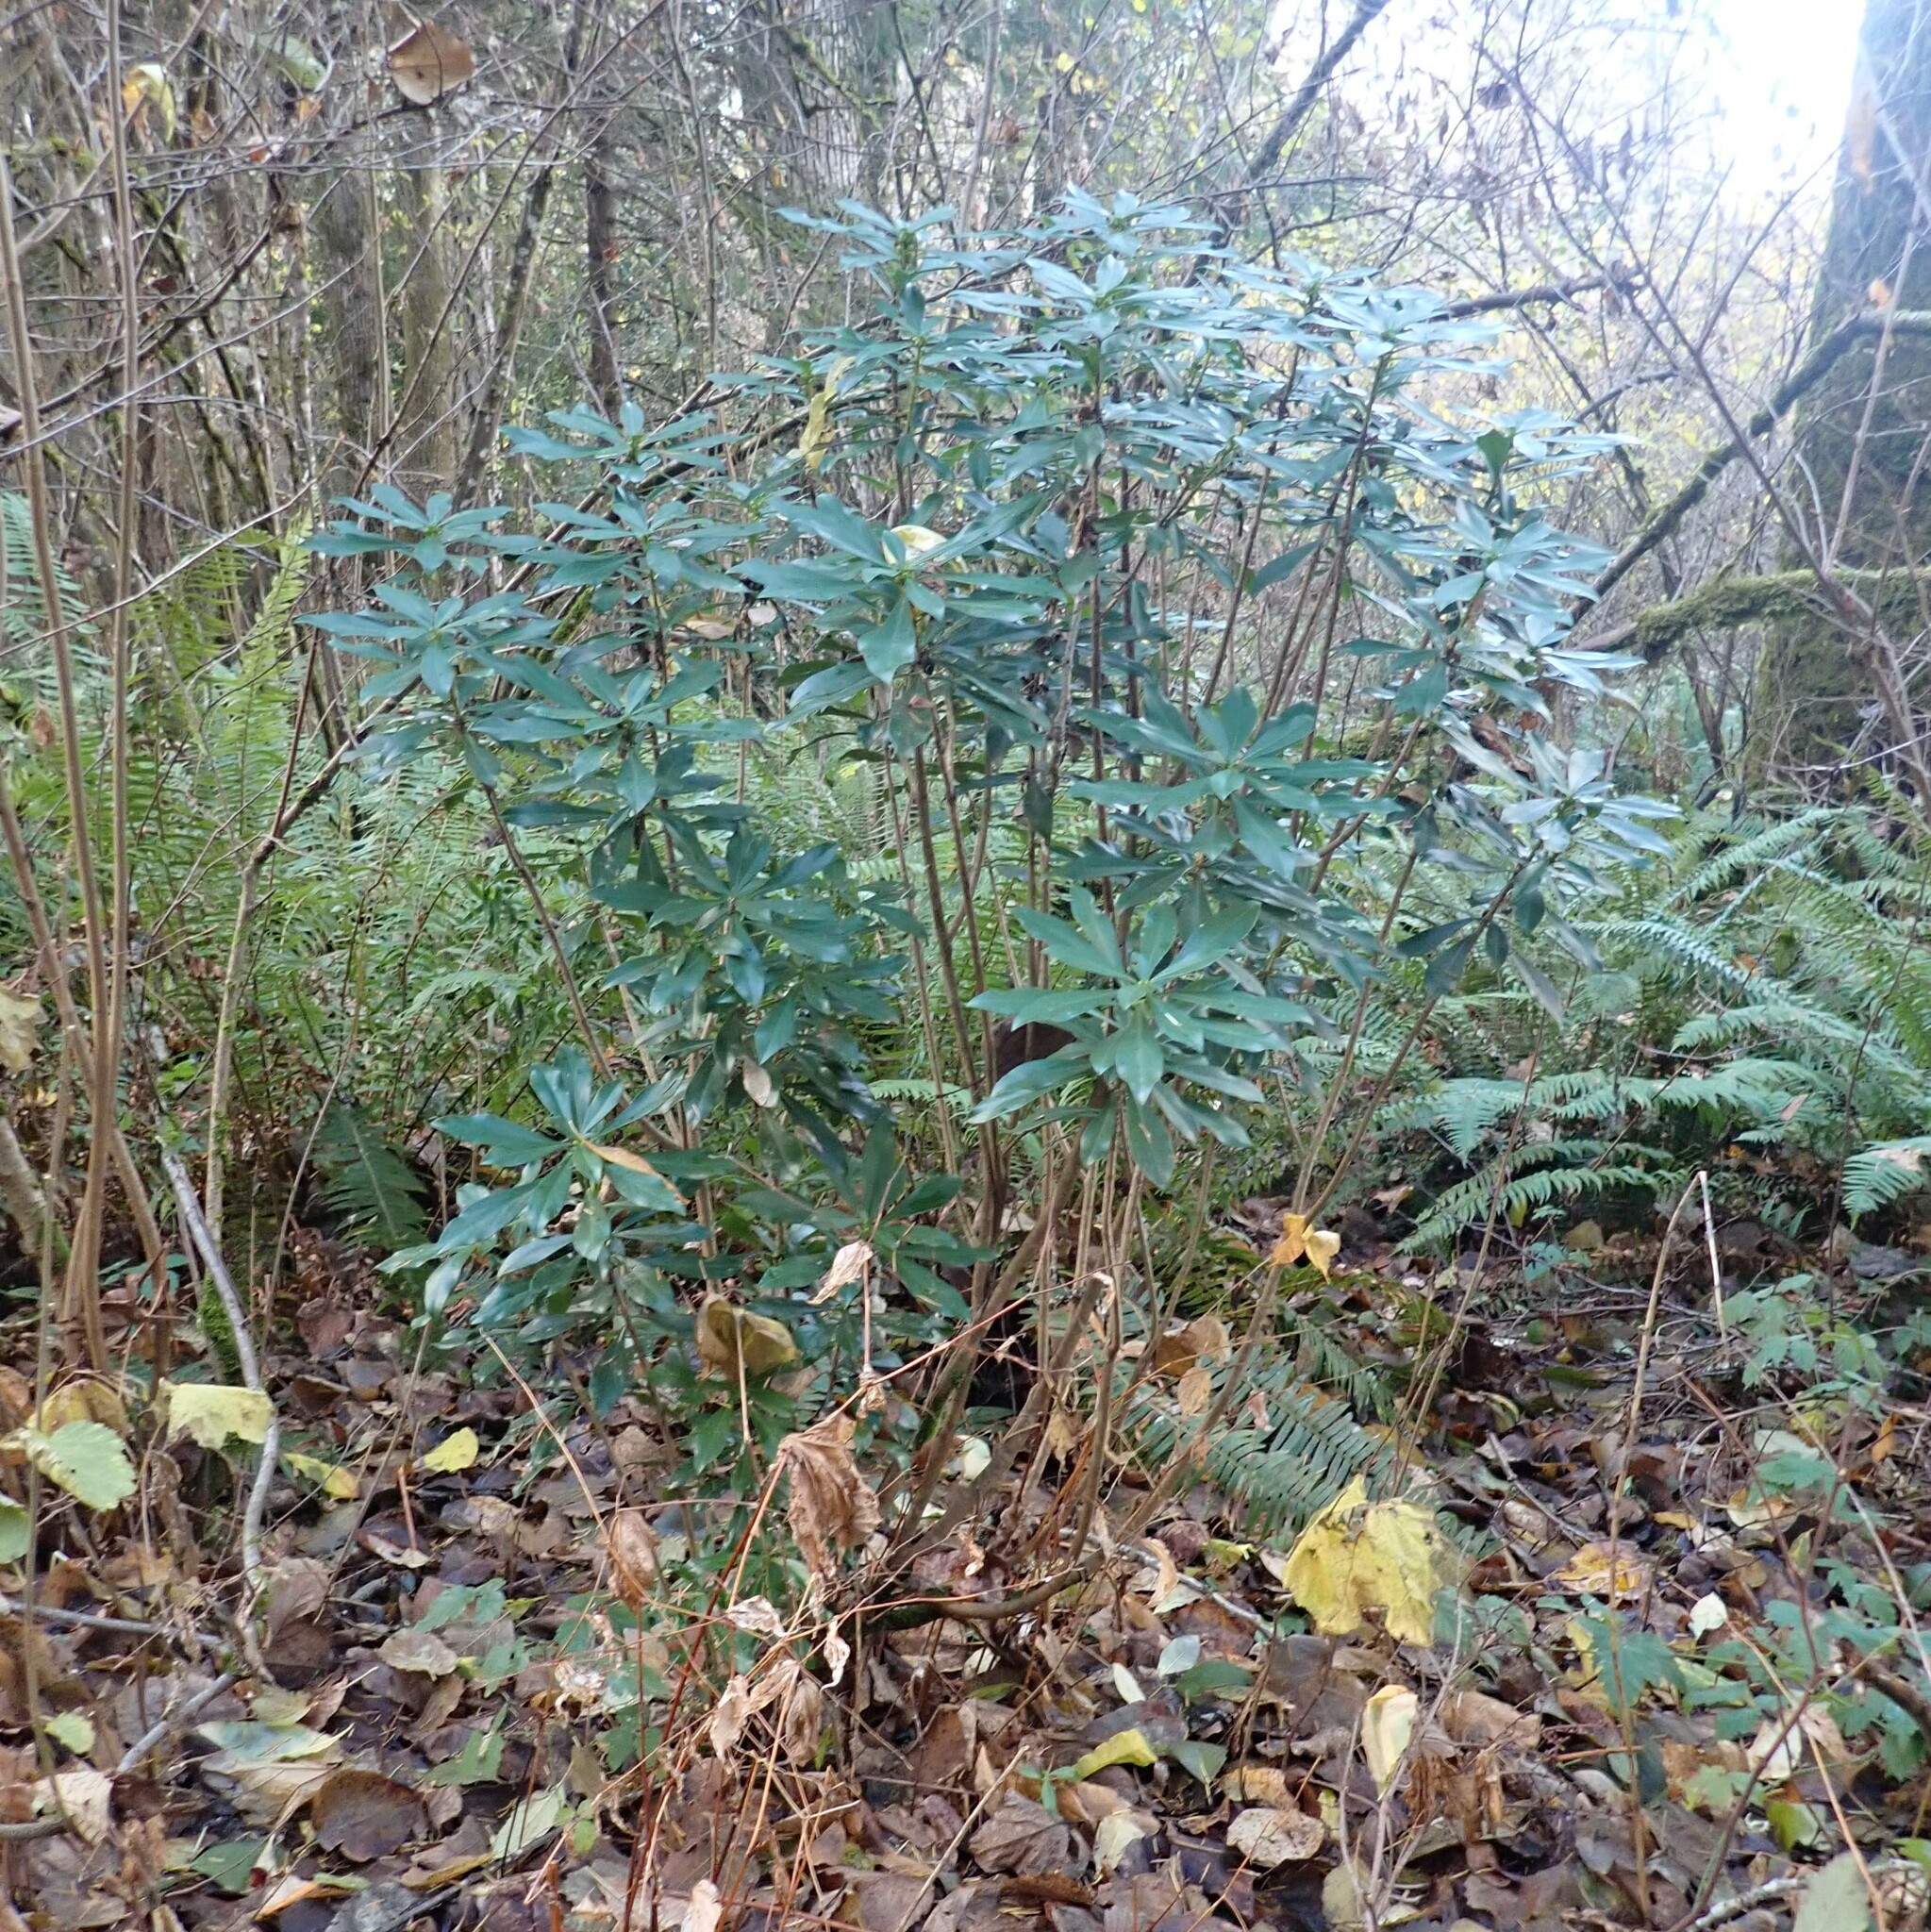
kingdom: Plantae
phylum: Tracheophyta
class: Magnoliopsida
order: Malvales
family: Thymelaeaceae
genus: Daphne
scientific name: Daphne laureola
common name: Spurge-laurel
